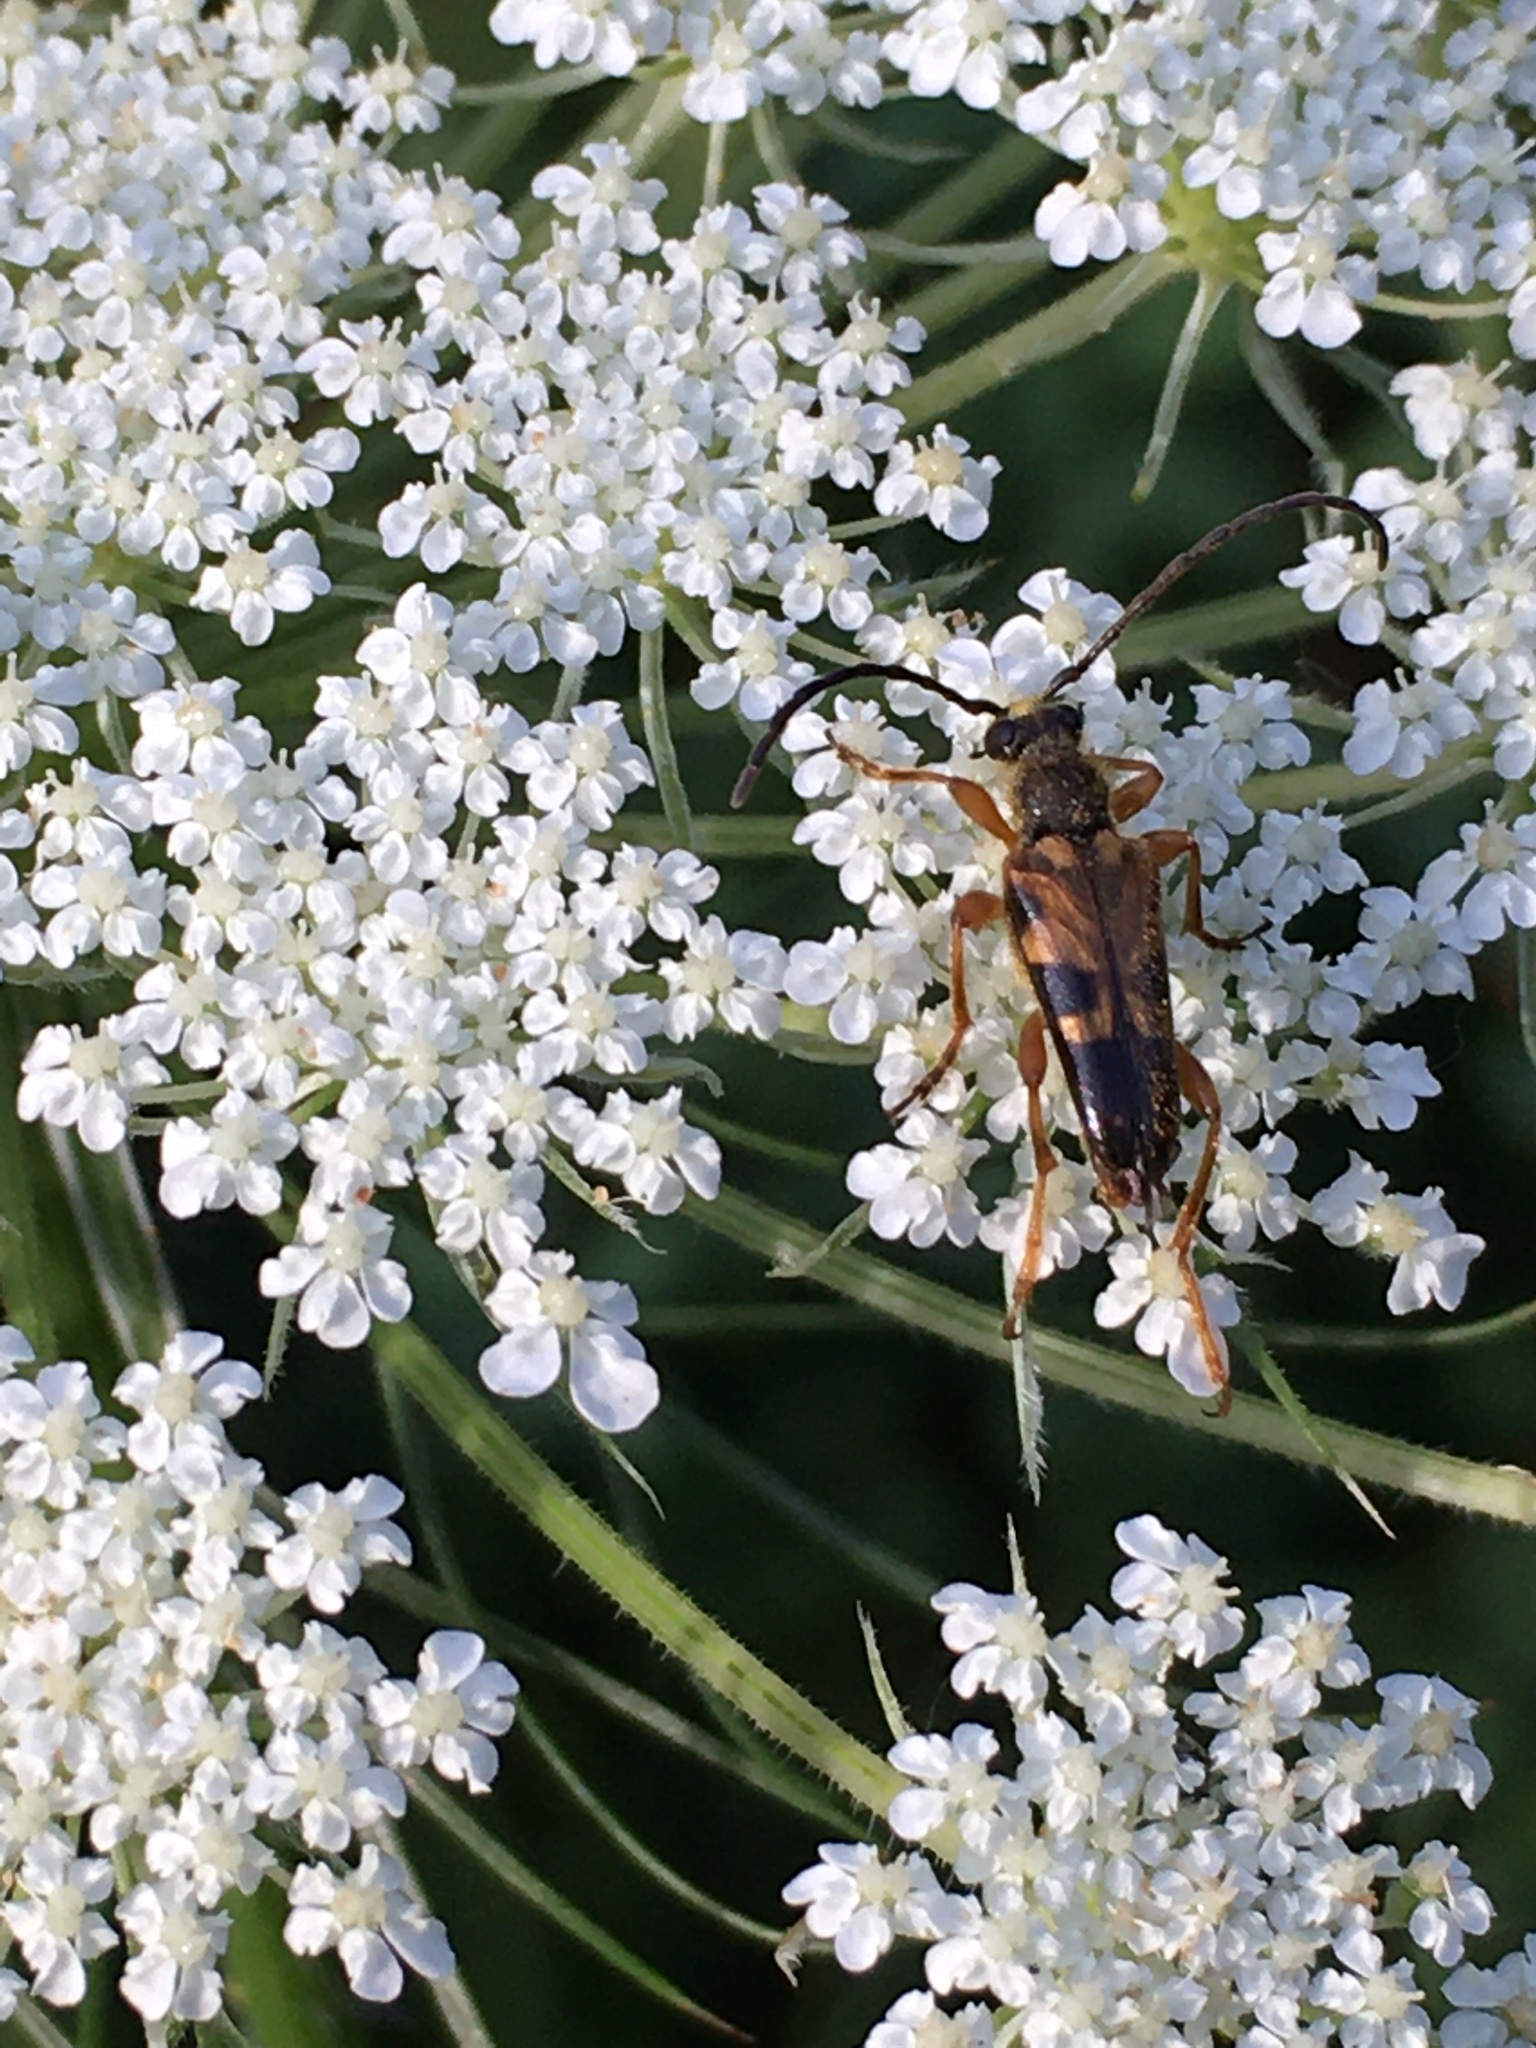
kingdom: Animalia
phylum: Arthropoda
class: Insecta
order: Coleoptera
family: Cerambycidae
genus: Xestoleptura
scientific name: Xestoleptura crassipes
